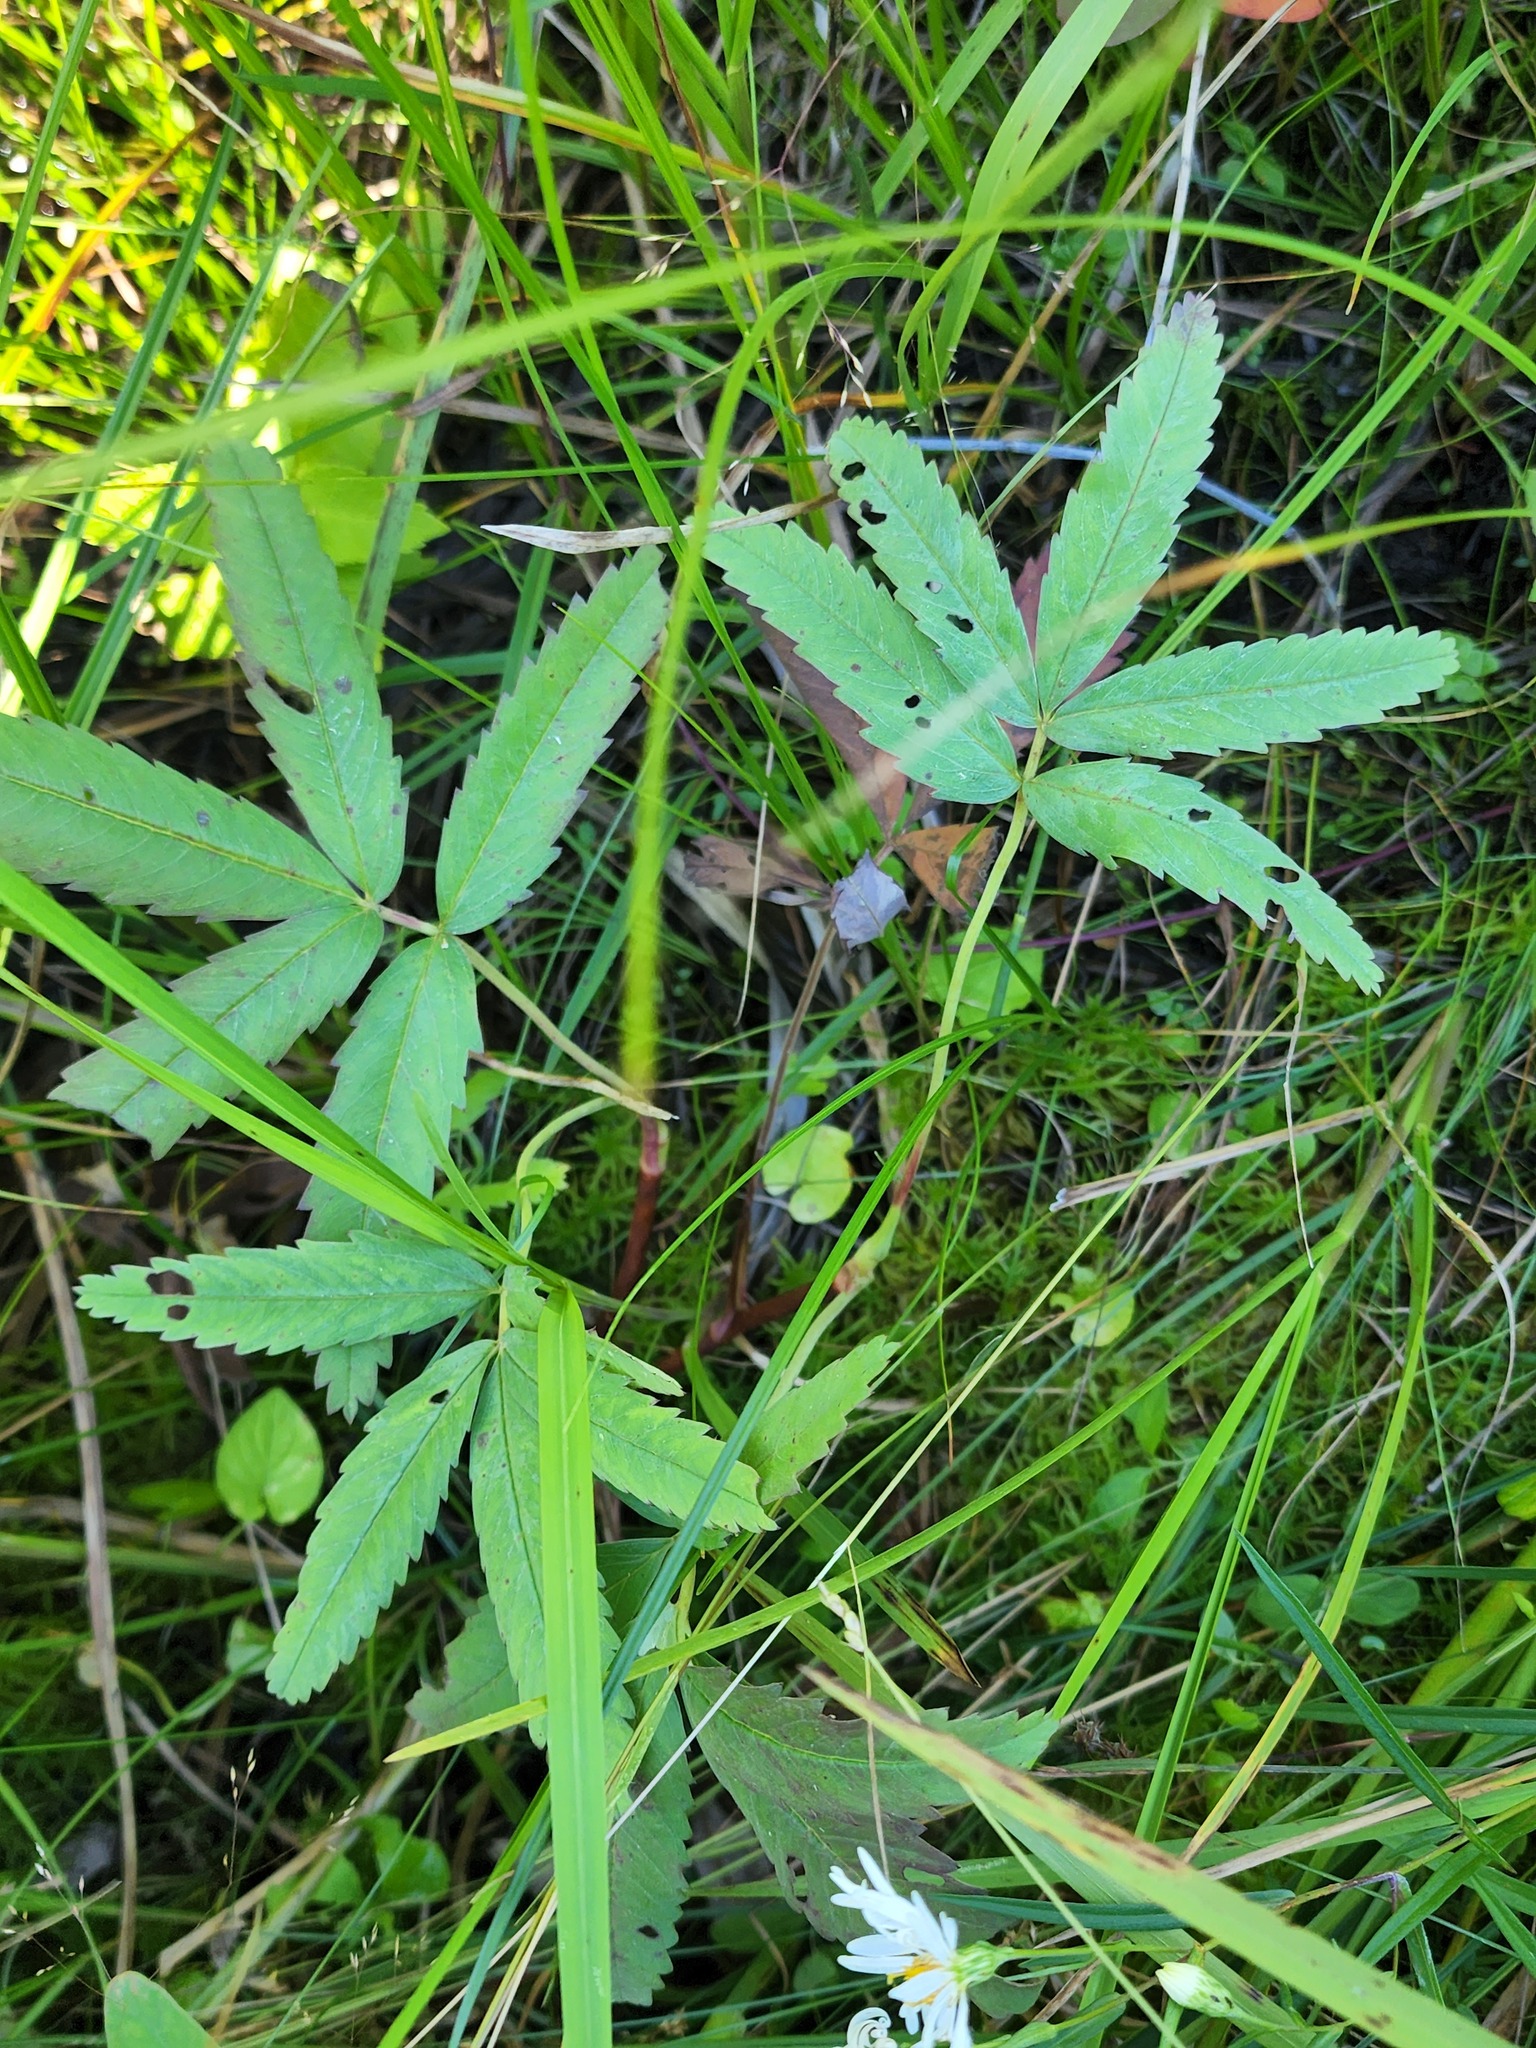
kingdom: Plantae
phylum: Tracheophyta
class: Magnoliopsida
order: Rosales
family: Rosaceae
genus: Comarum
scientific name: Comarum palustre
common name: Marsh cinquefoil
